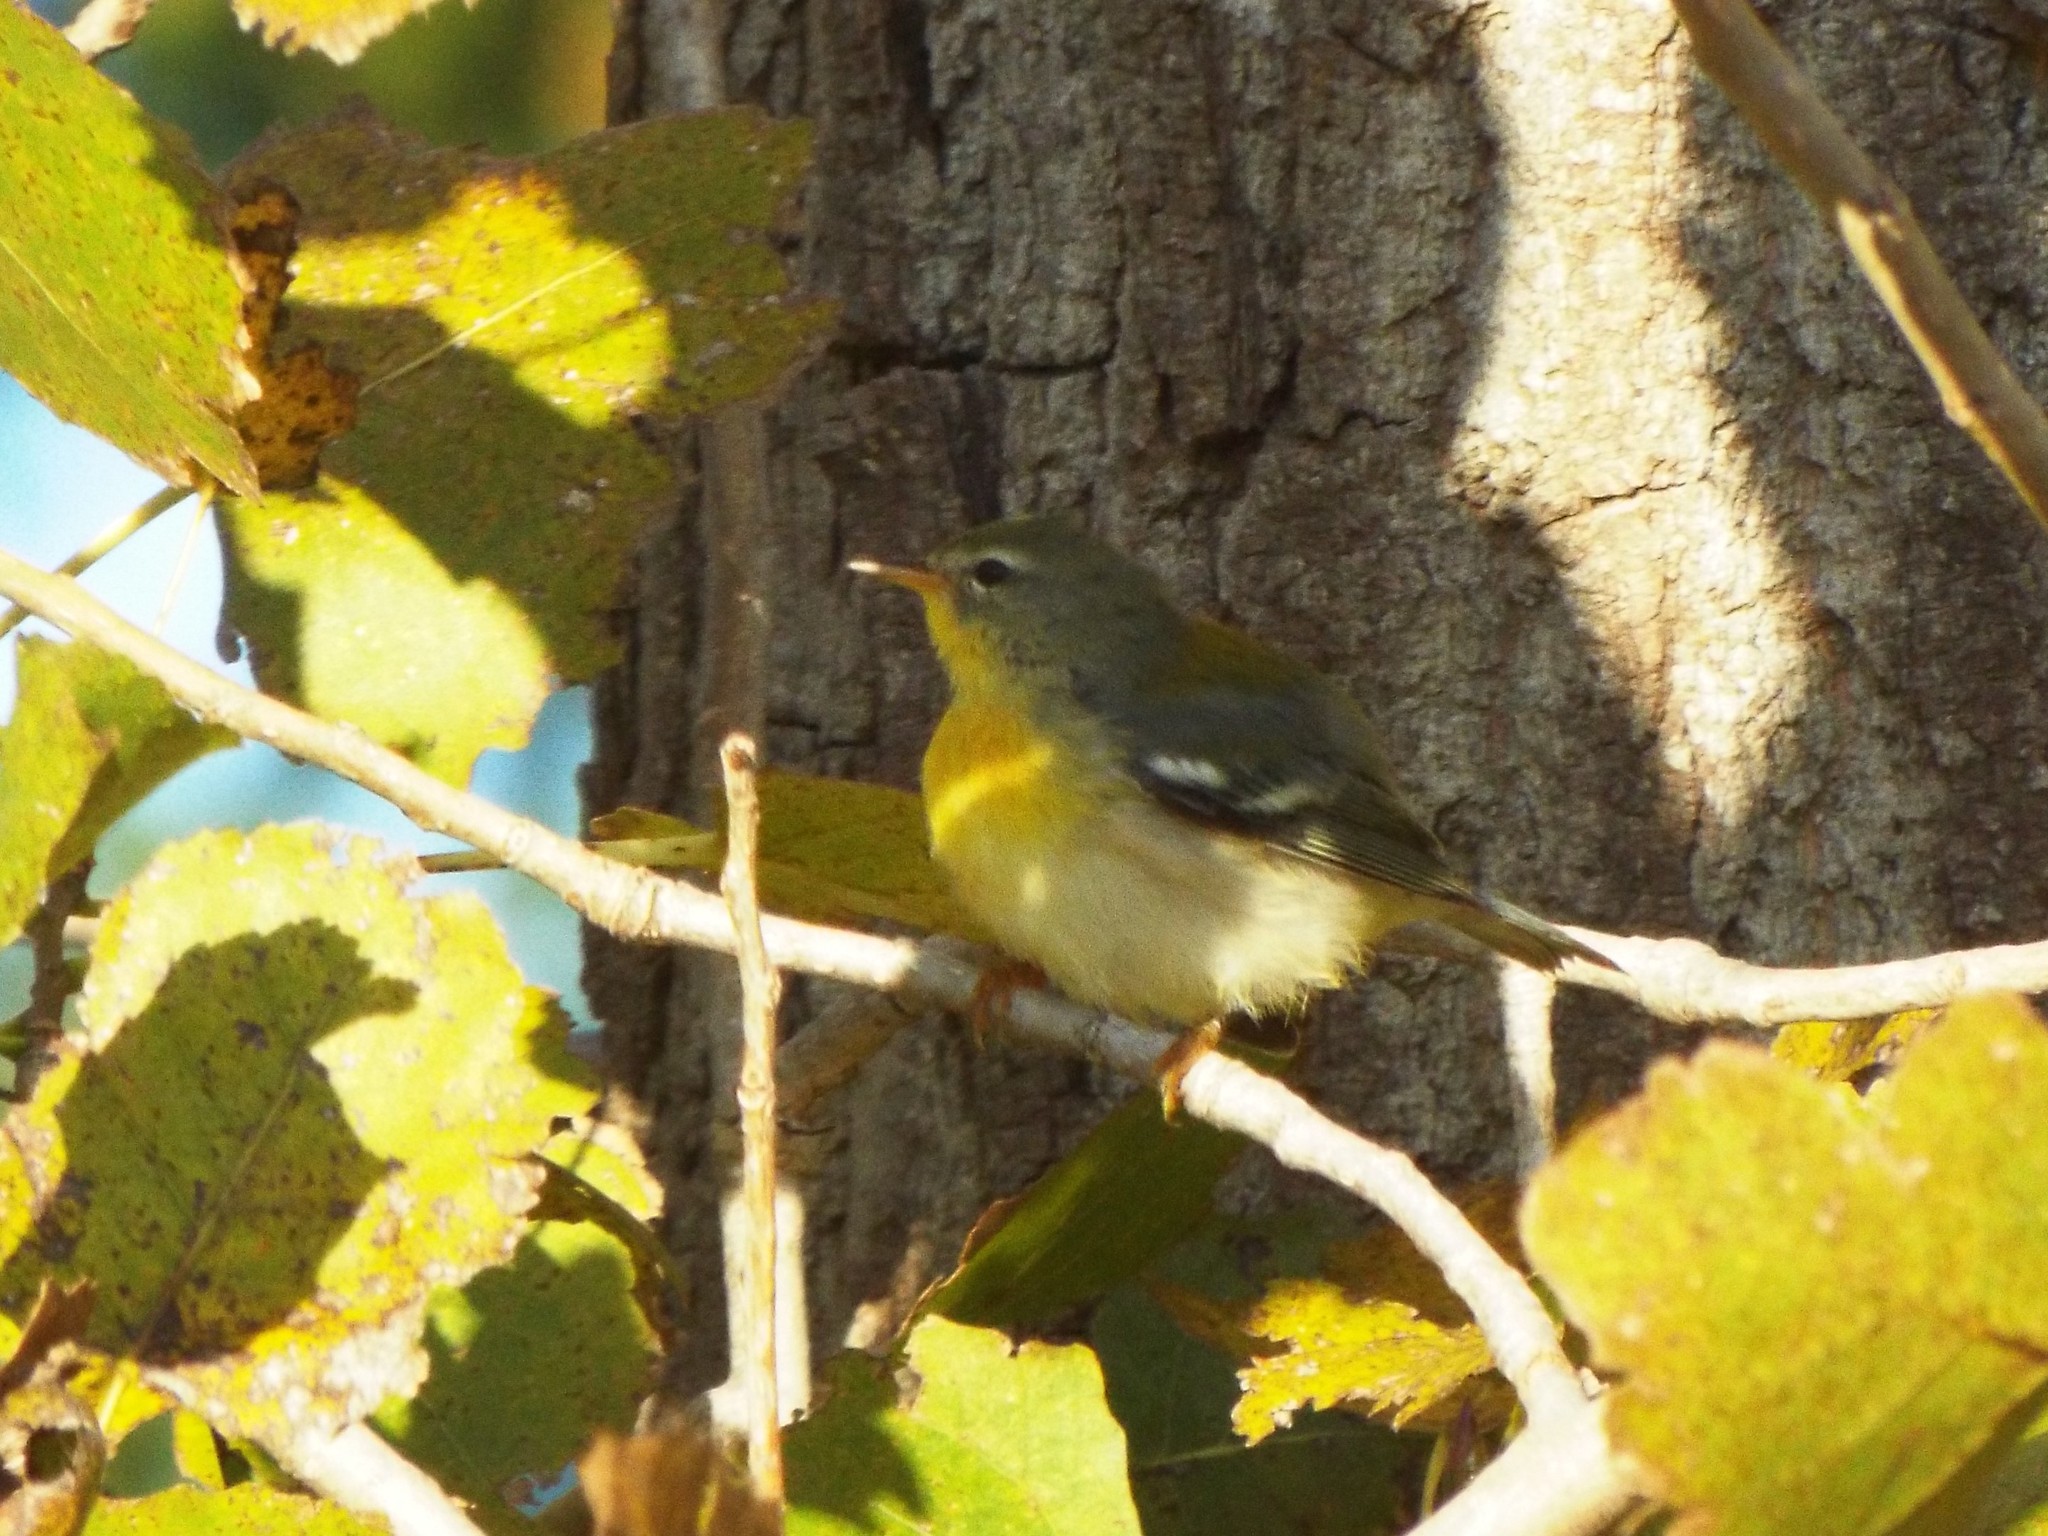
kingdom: Animalia
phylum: Chordata
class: Aves
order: Passeriformes
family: Parulidae
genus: Setophaga
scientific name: Setophaga americana
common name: Northern parula
